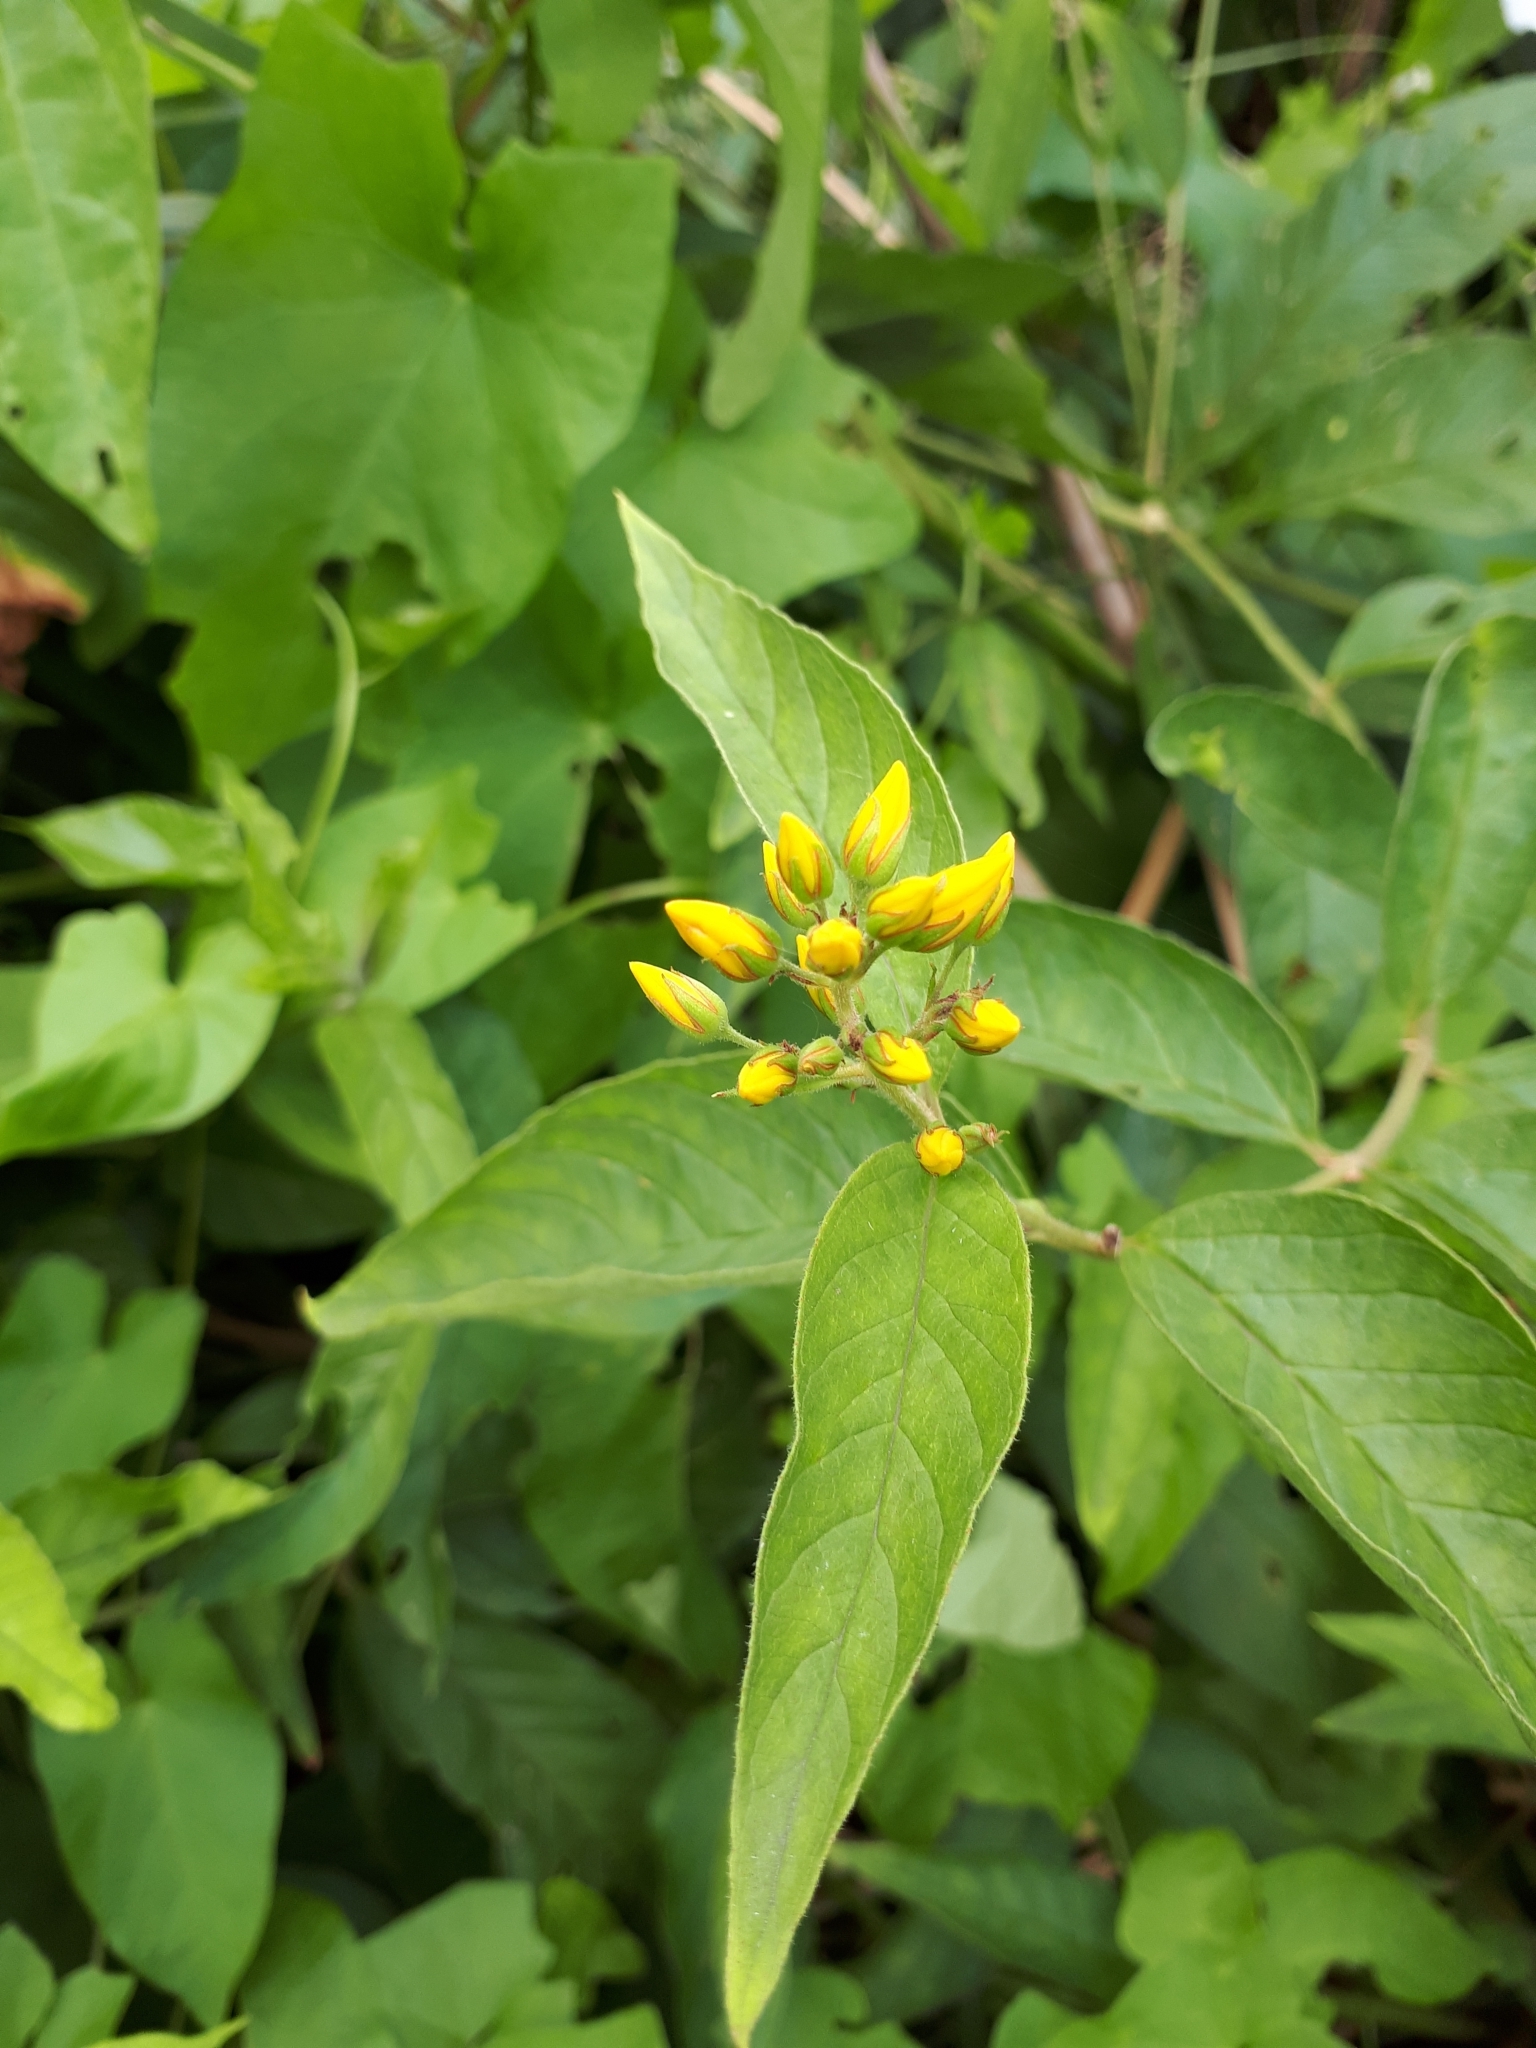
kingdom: Plantae
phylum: Tracheophyta
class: Magnoliopsida
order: Ericales
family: Primulaceae
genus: Lysimachia
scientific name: Lysimachia vulgaris
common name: Yellow loosestrife
